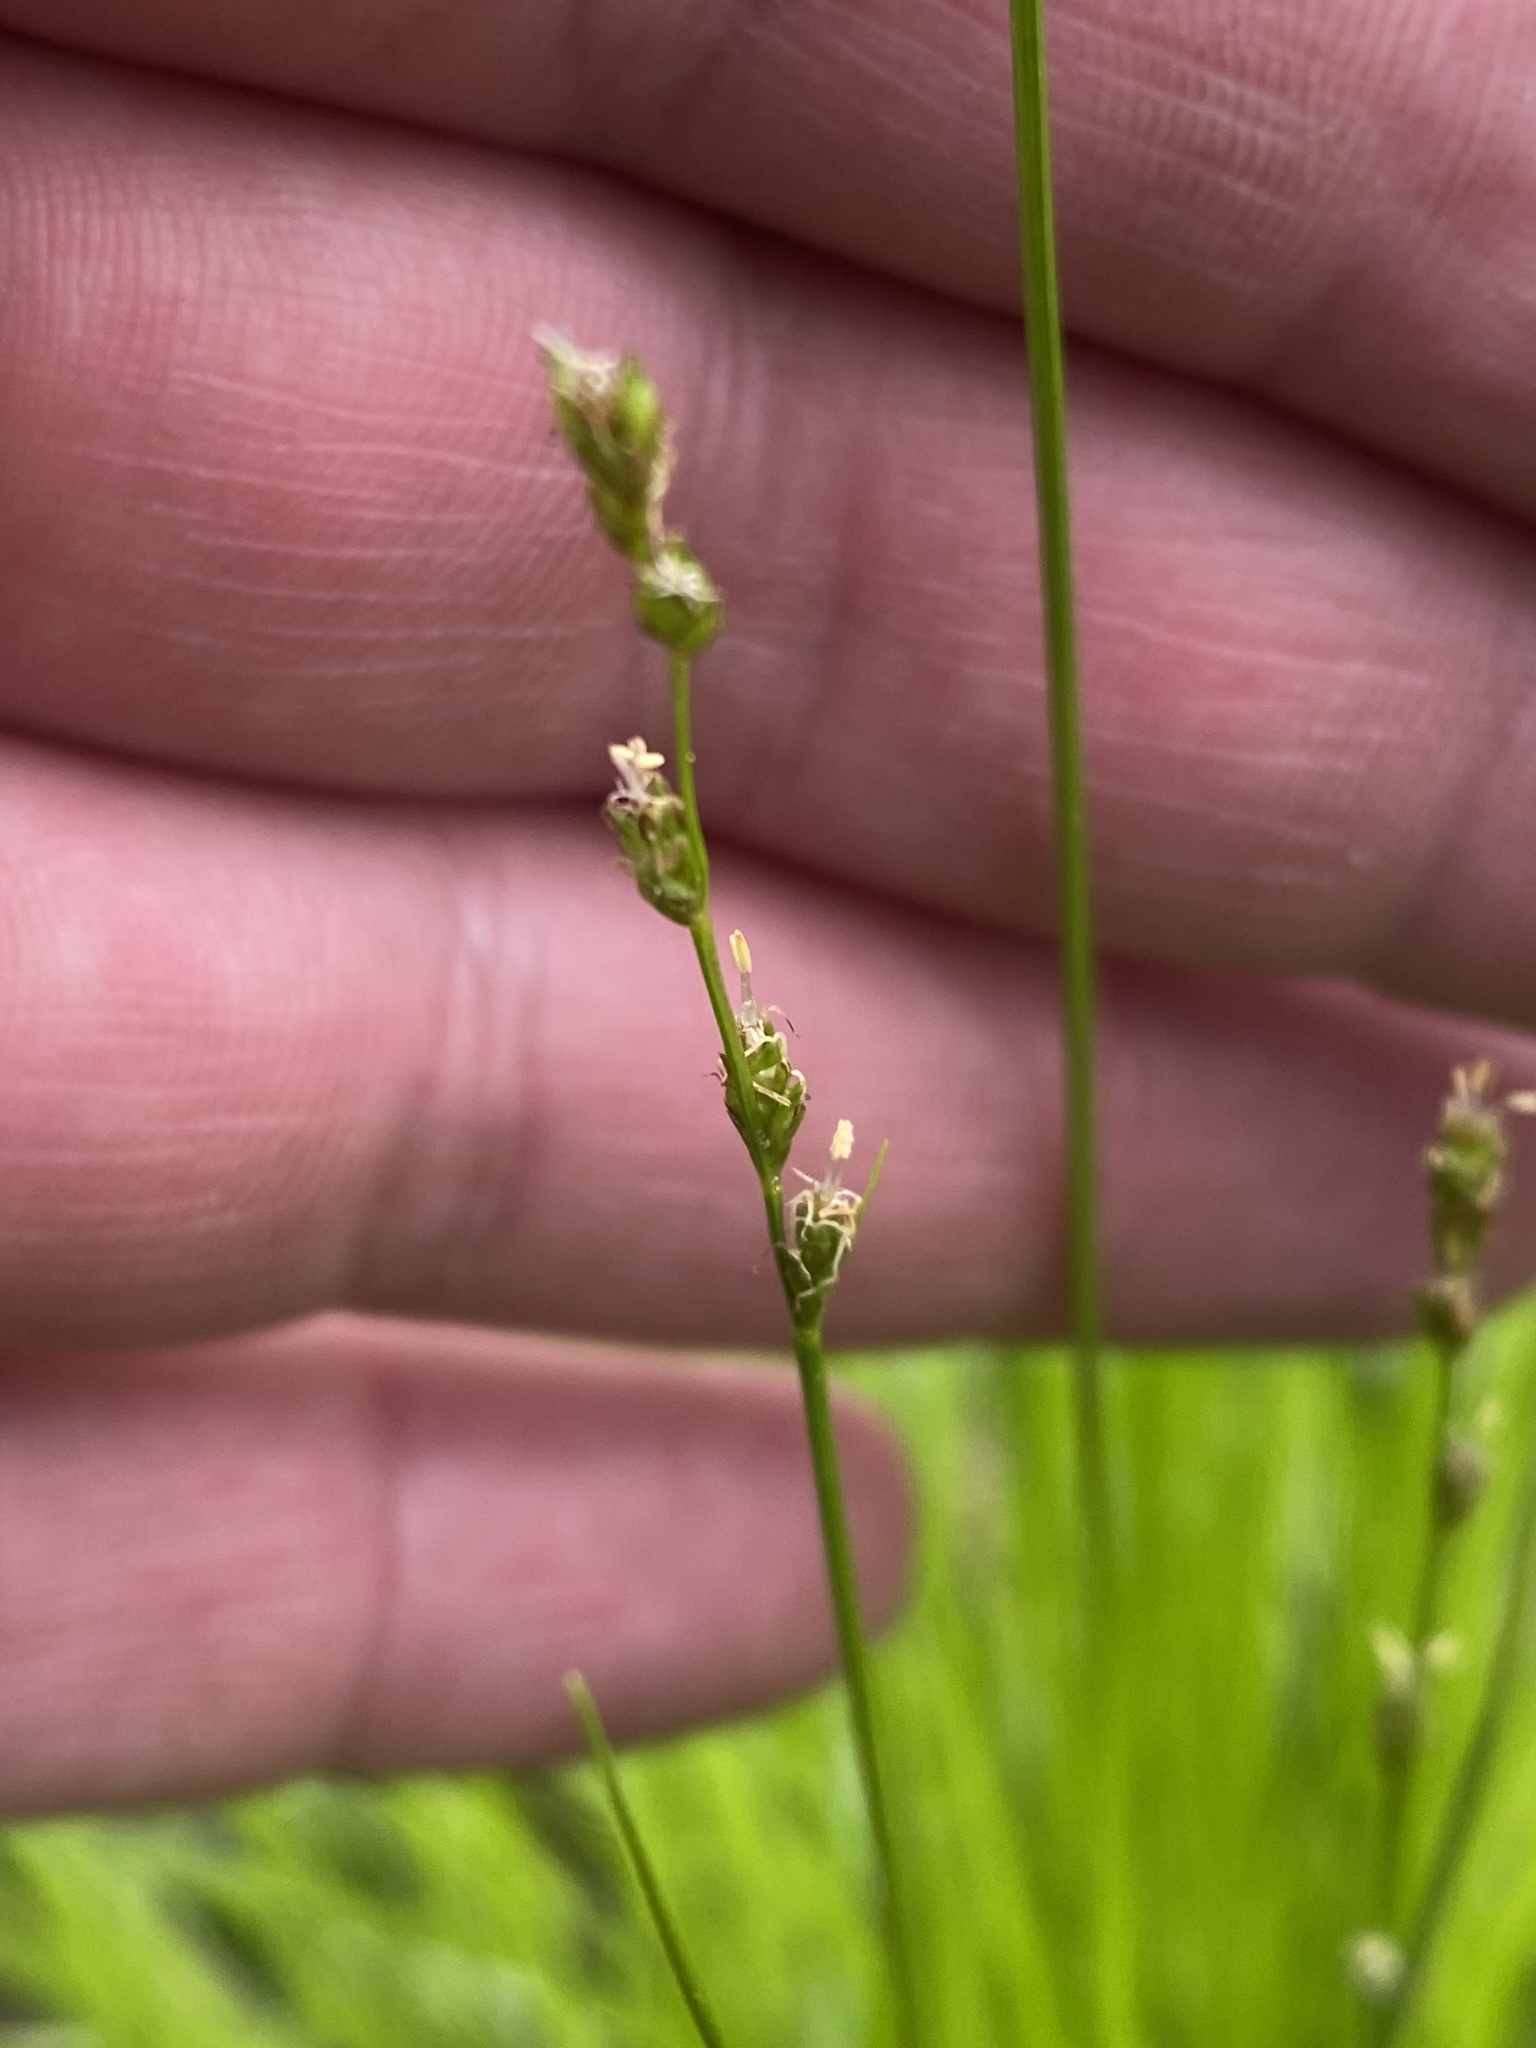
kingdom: Plantae
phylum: Tracheophyta
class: Liliopsida
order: Poales
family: Cyperaceae
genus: Carex
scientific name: Carex bromoides
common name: Brome hummock sedge
